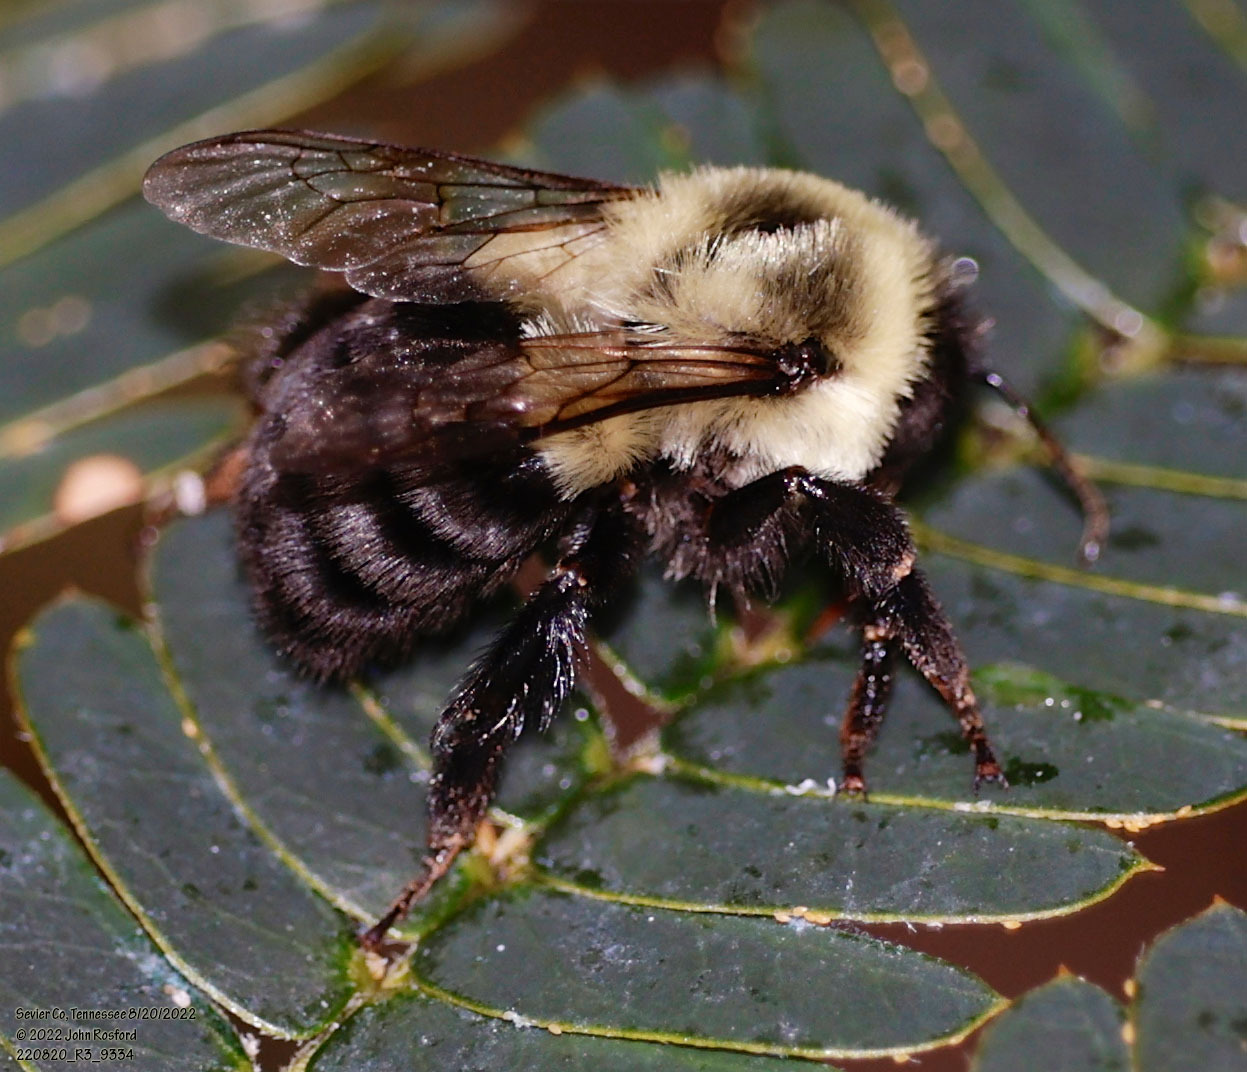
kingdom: Animalia
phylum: Arthropoda
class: Insecta
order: Hymenoptera
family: Apidae
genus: Bombus
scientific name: Bombus impatiens
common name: Common eastern bumble bee
